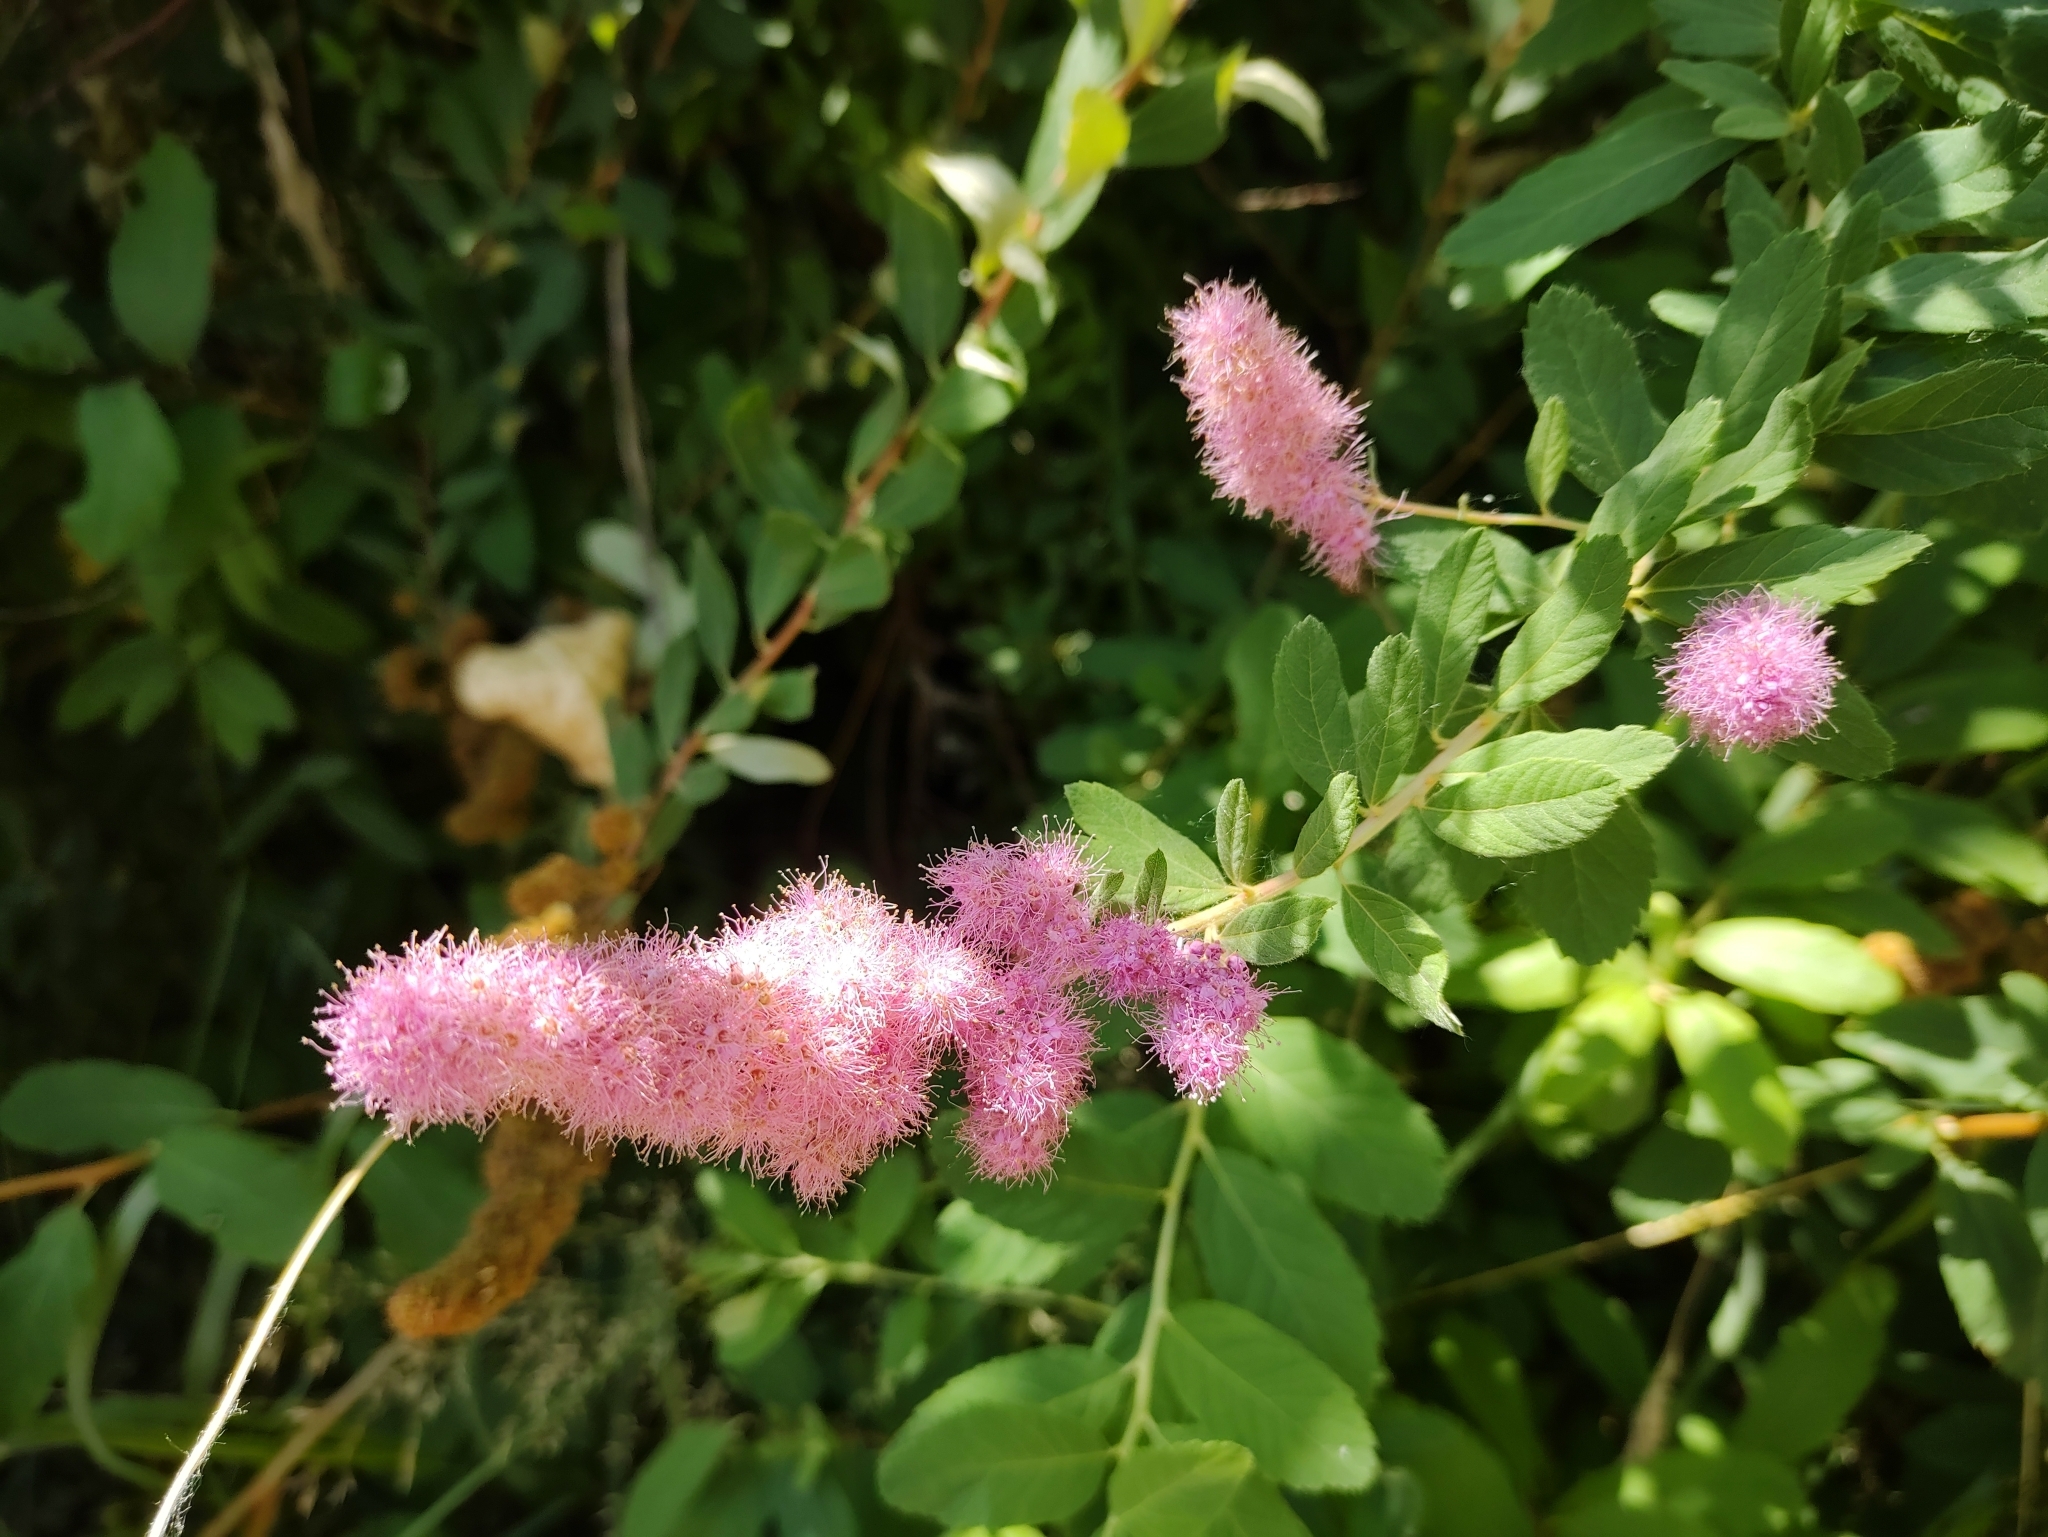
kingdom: Plantae
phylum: Tracheophyta
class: Magnoliopsida
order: Rosales
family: Rosaceae
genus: Spiraea
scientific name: Spiraea douglasii
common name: Steeplebush
